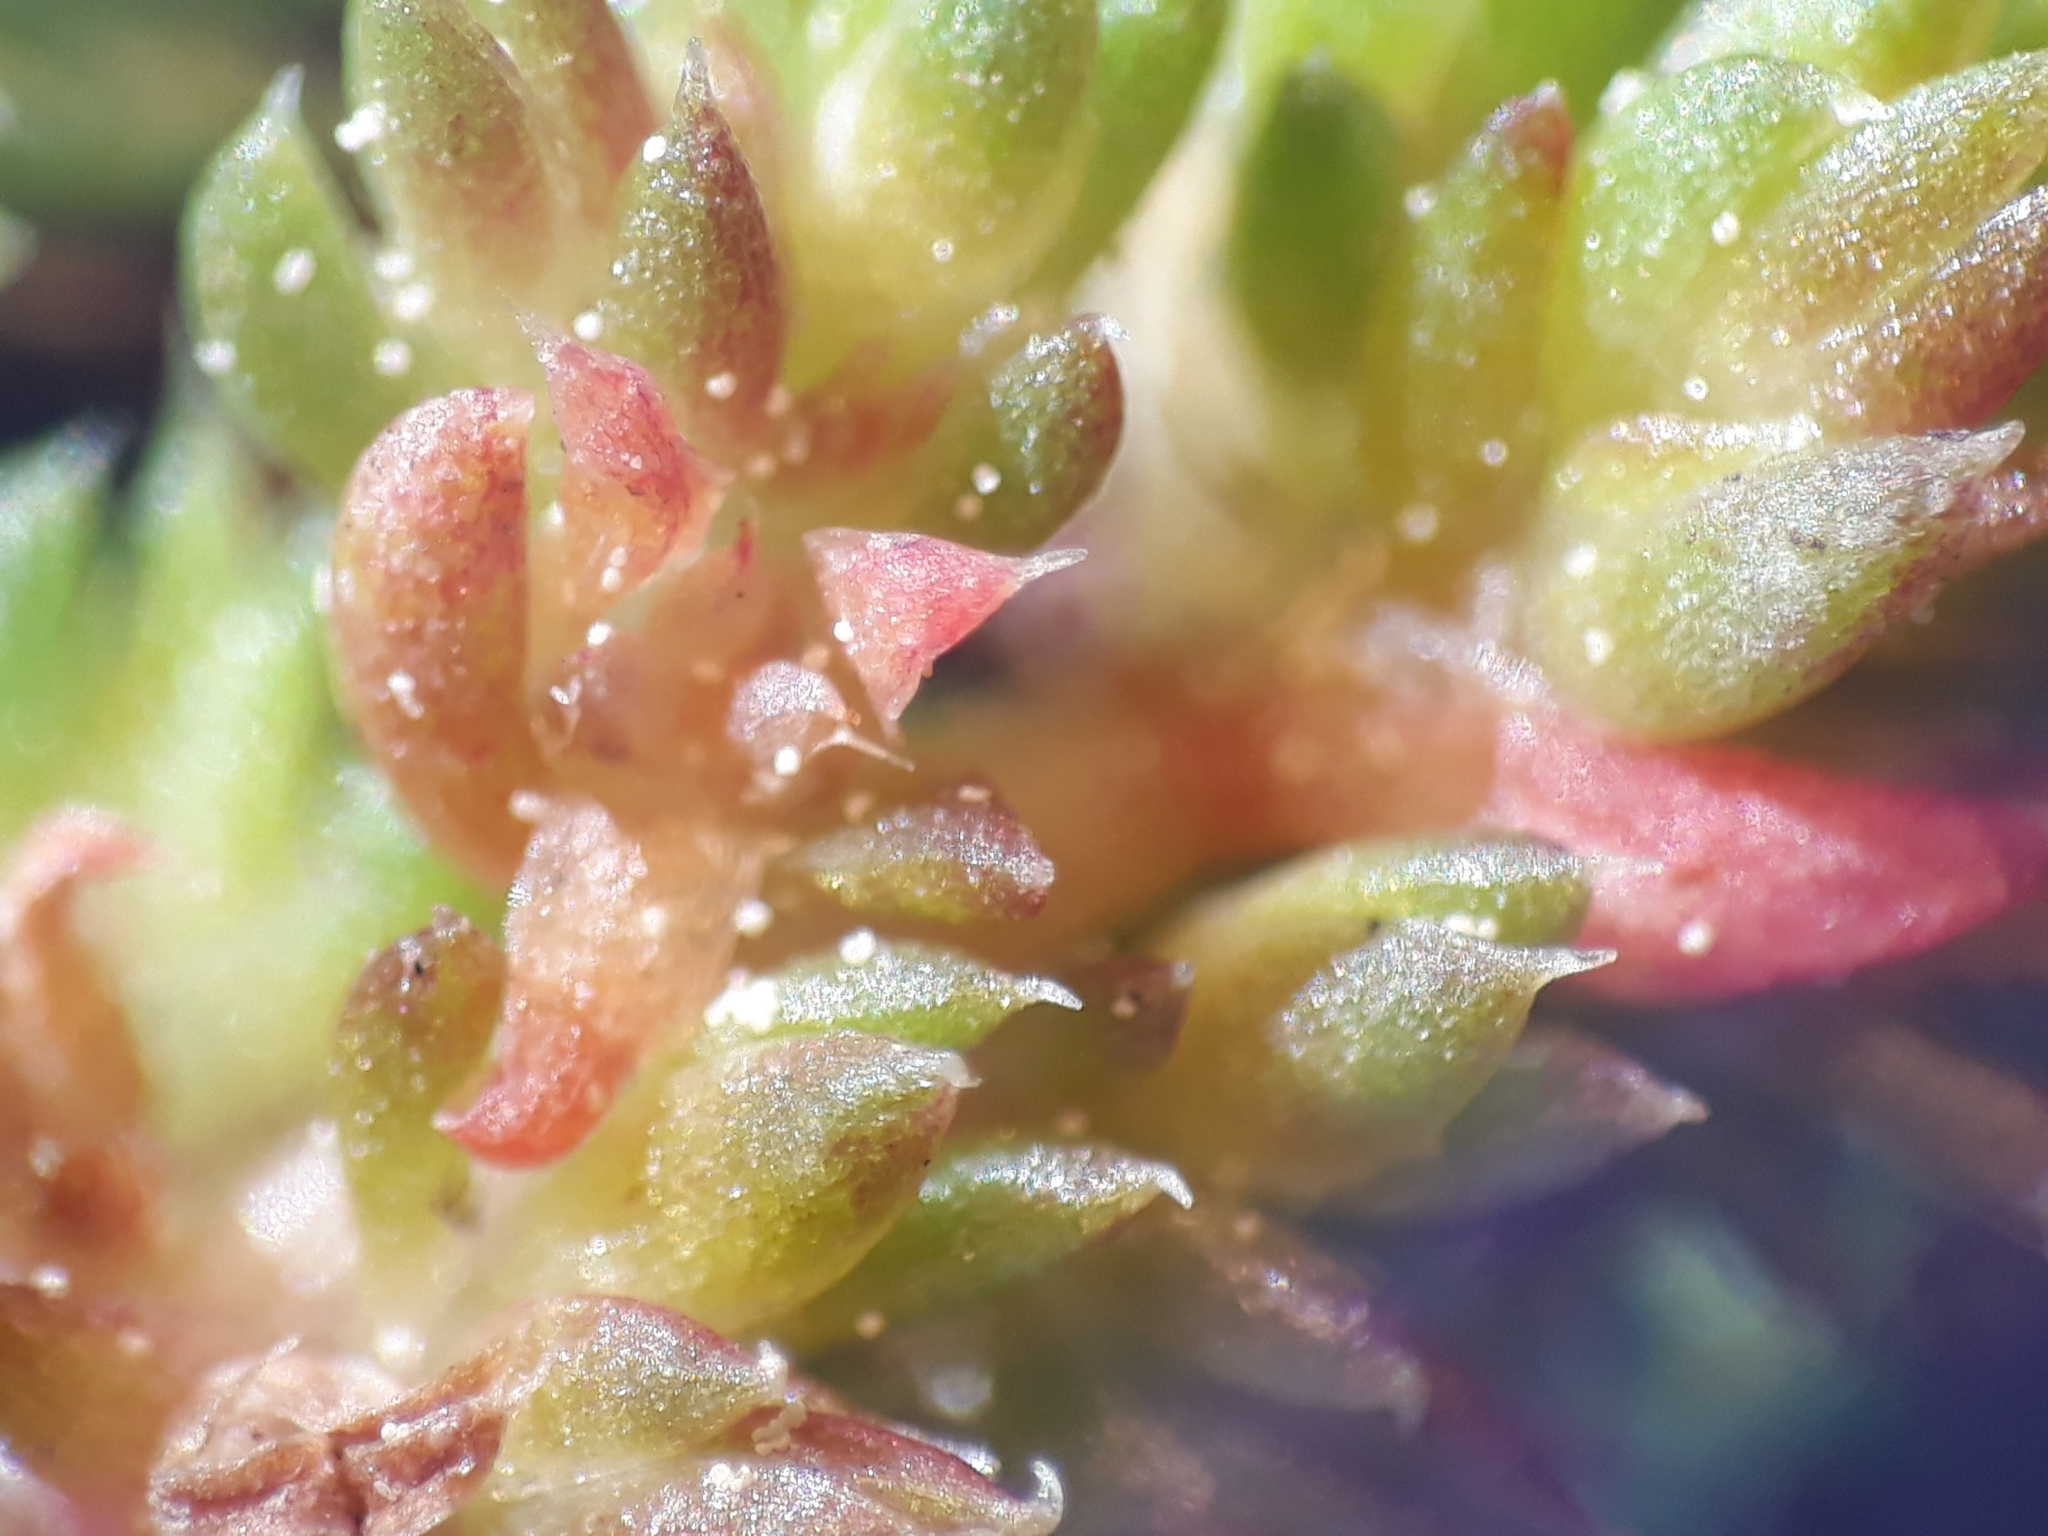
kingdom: Plantae
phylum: Tracheophyta
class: Magnoliopsida
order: Saxifragales
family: Crassulaceae
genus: Crassula
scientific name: Crassula alata
